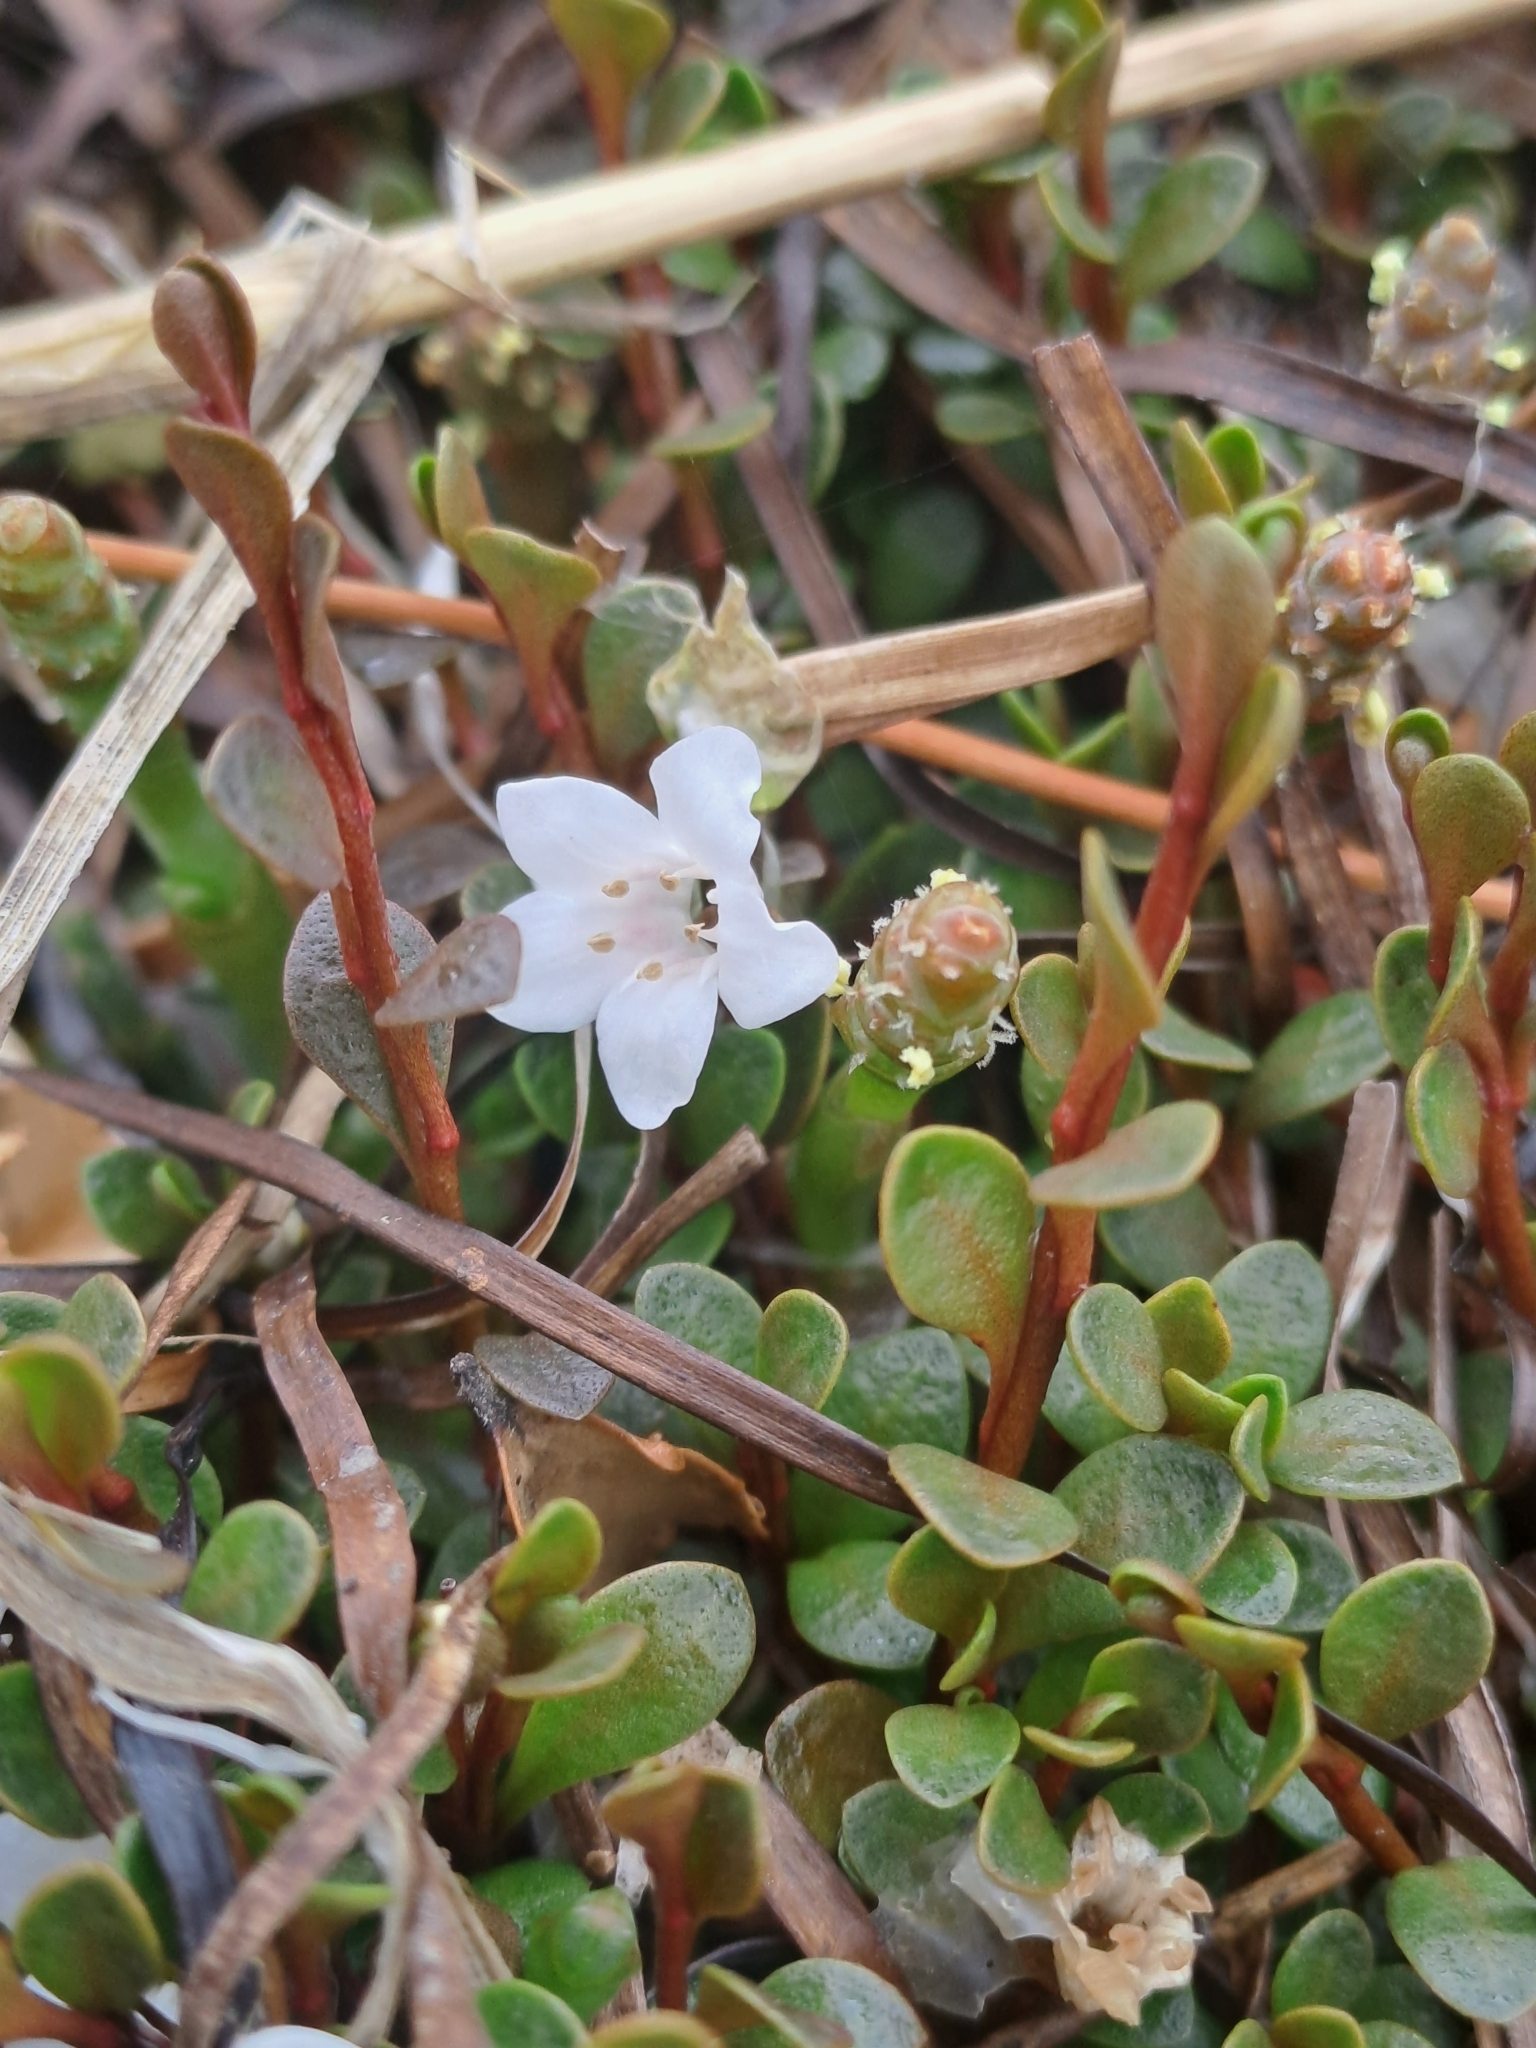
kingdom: Plantae
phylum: Tracheophyta
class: Magnoliopsida
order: Ericales
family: Primulaceae
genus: Samolus
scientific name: Samolus repens
